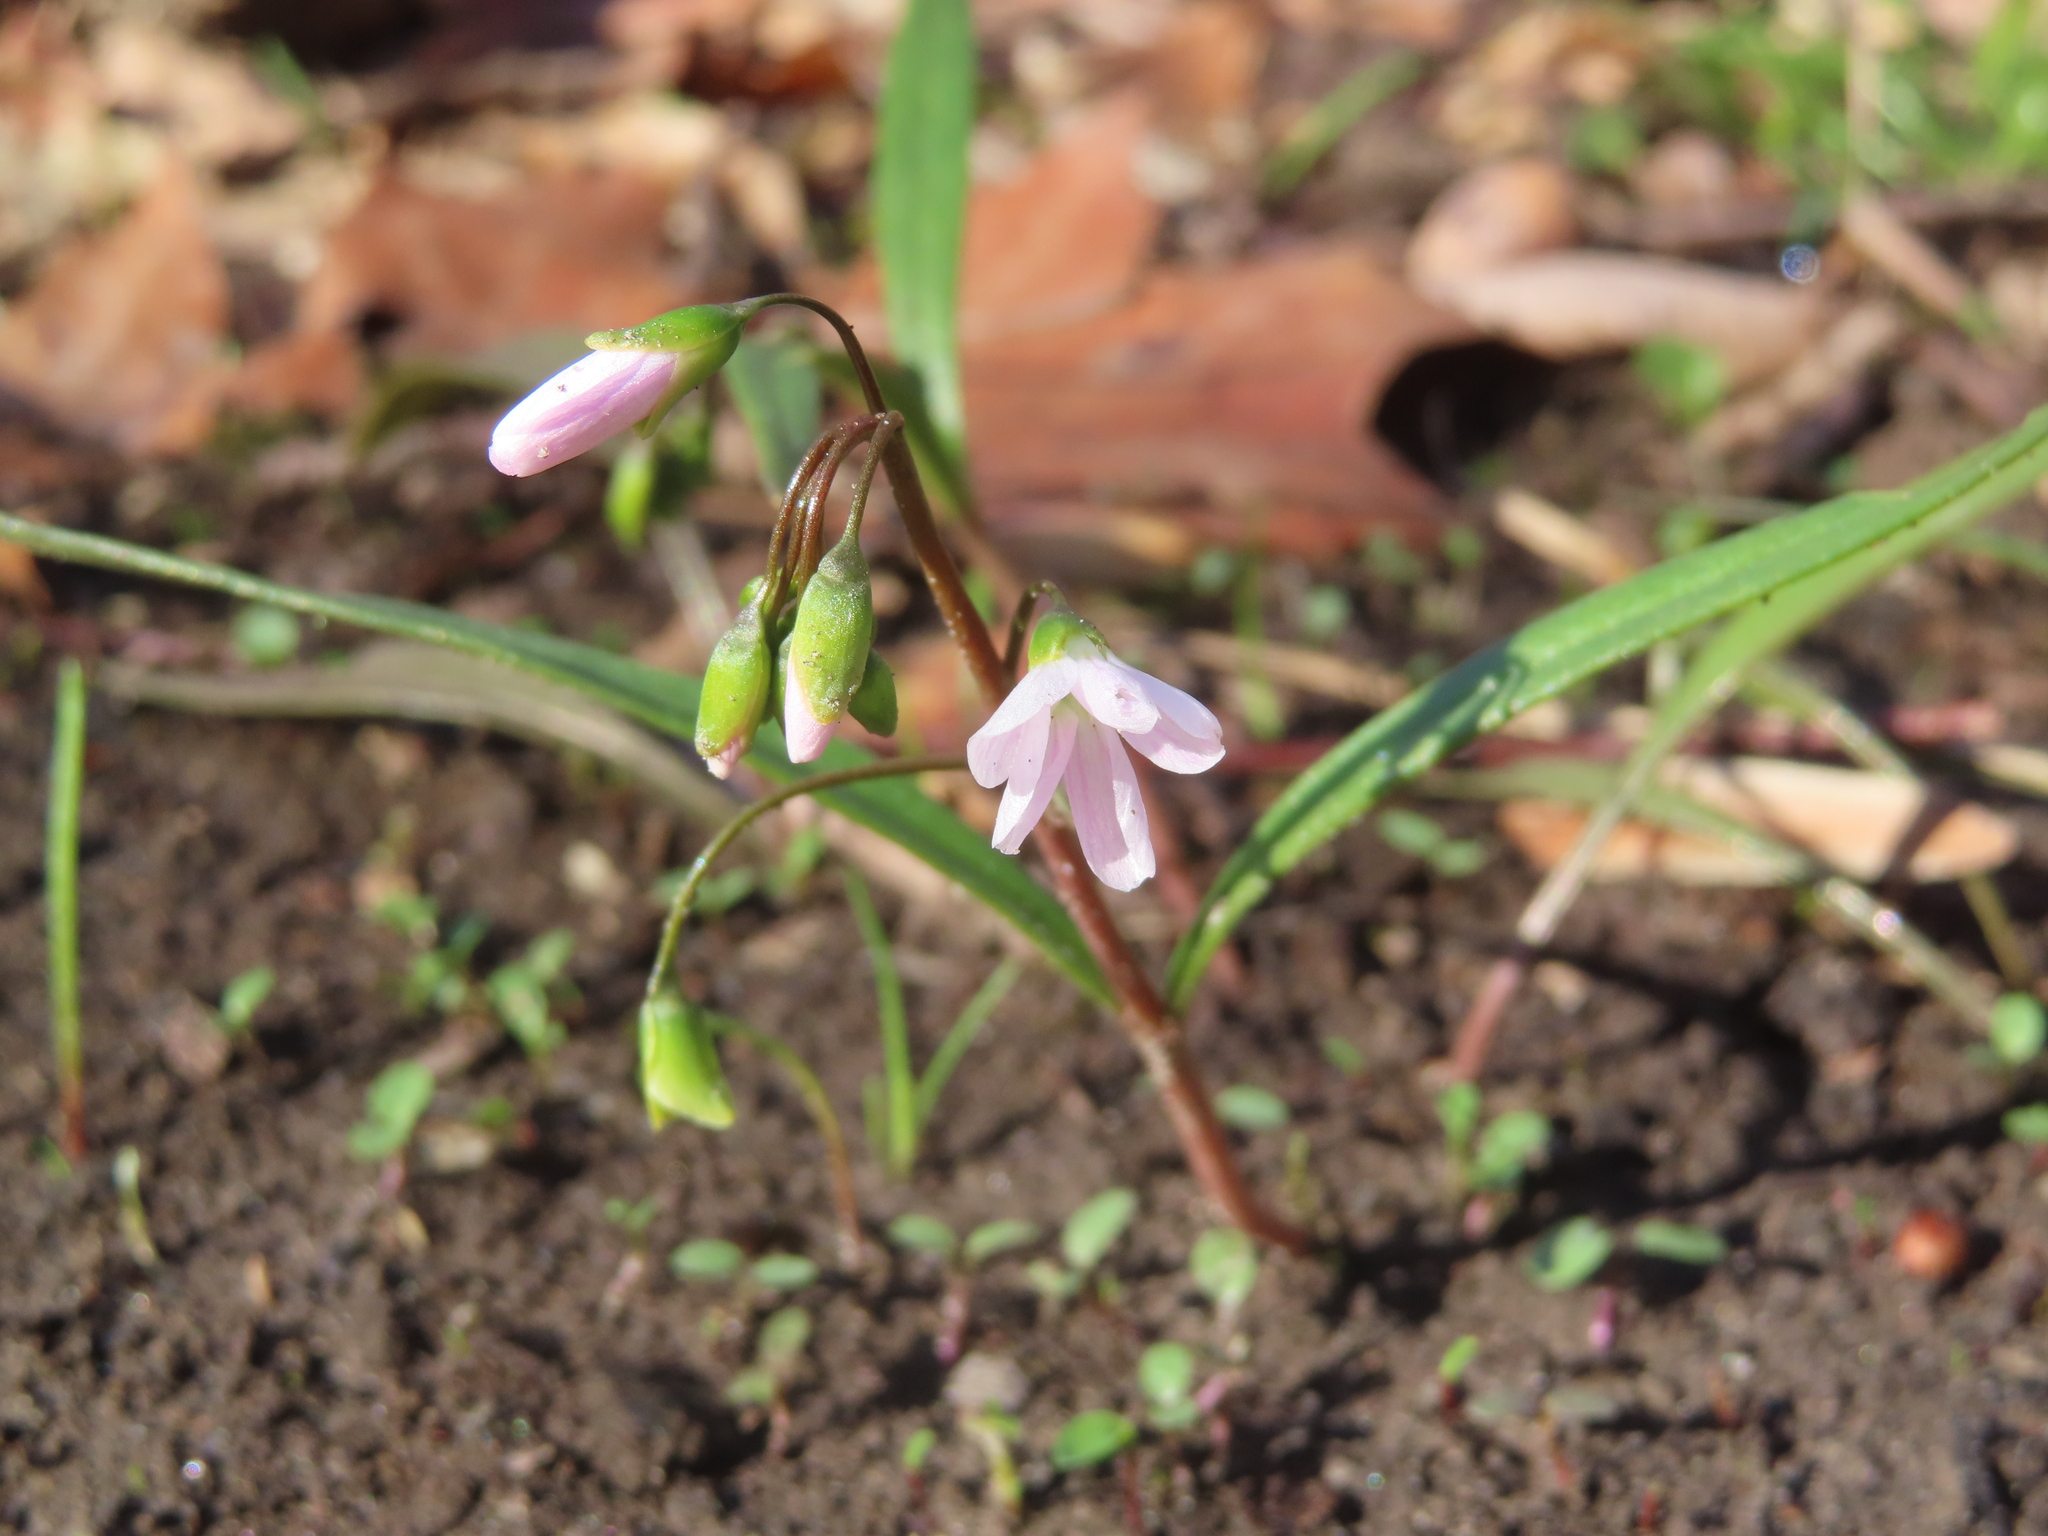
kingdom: Plantae
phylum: Tracheophyta
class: Magnoliopsida
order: Caryophyllales
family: Montiaceae
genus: Claytonia
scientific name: Claytonia virginica
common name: Virginia springbeauty
